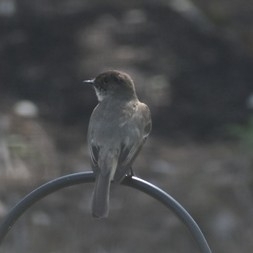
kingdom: Animalia
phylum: Chordata
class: Aves
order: Passeriformes
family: Tyrannidae
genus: Sayornis
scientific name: Sayornis phoebe
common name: Eastern phoebe
